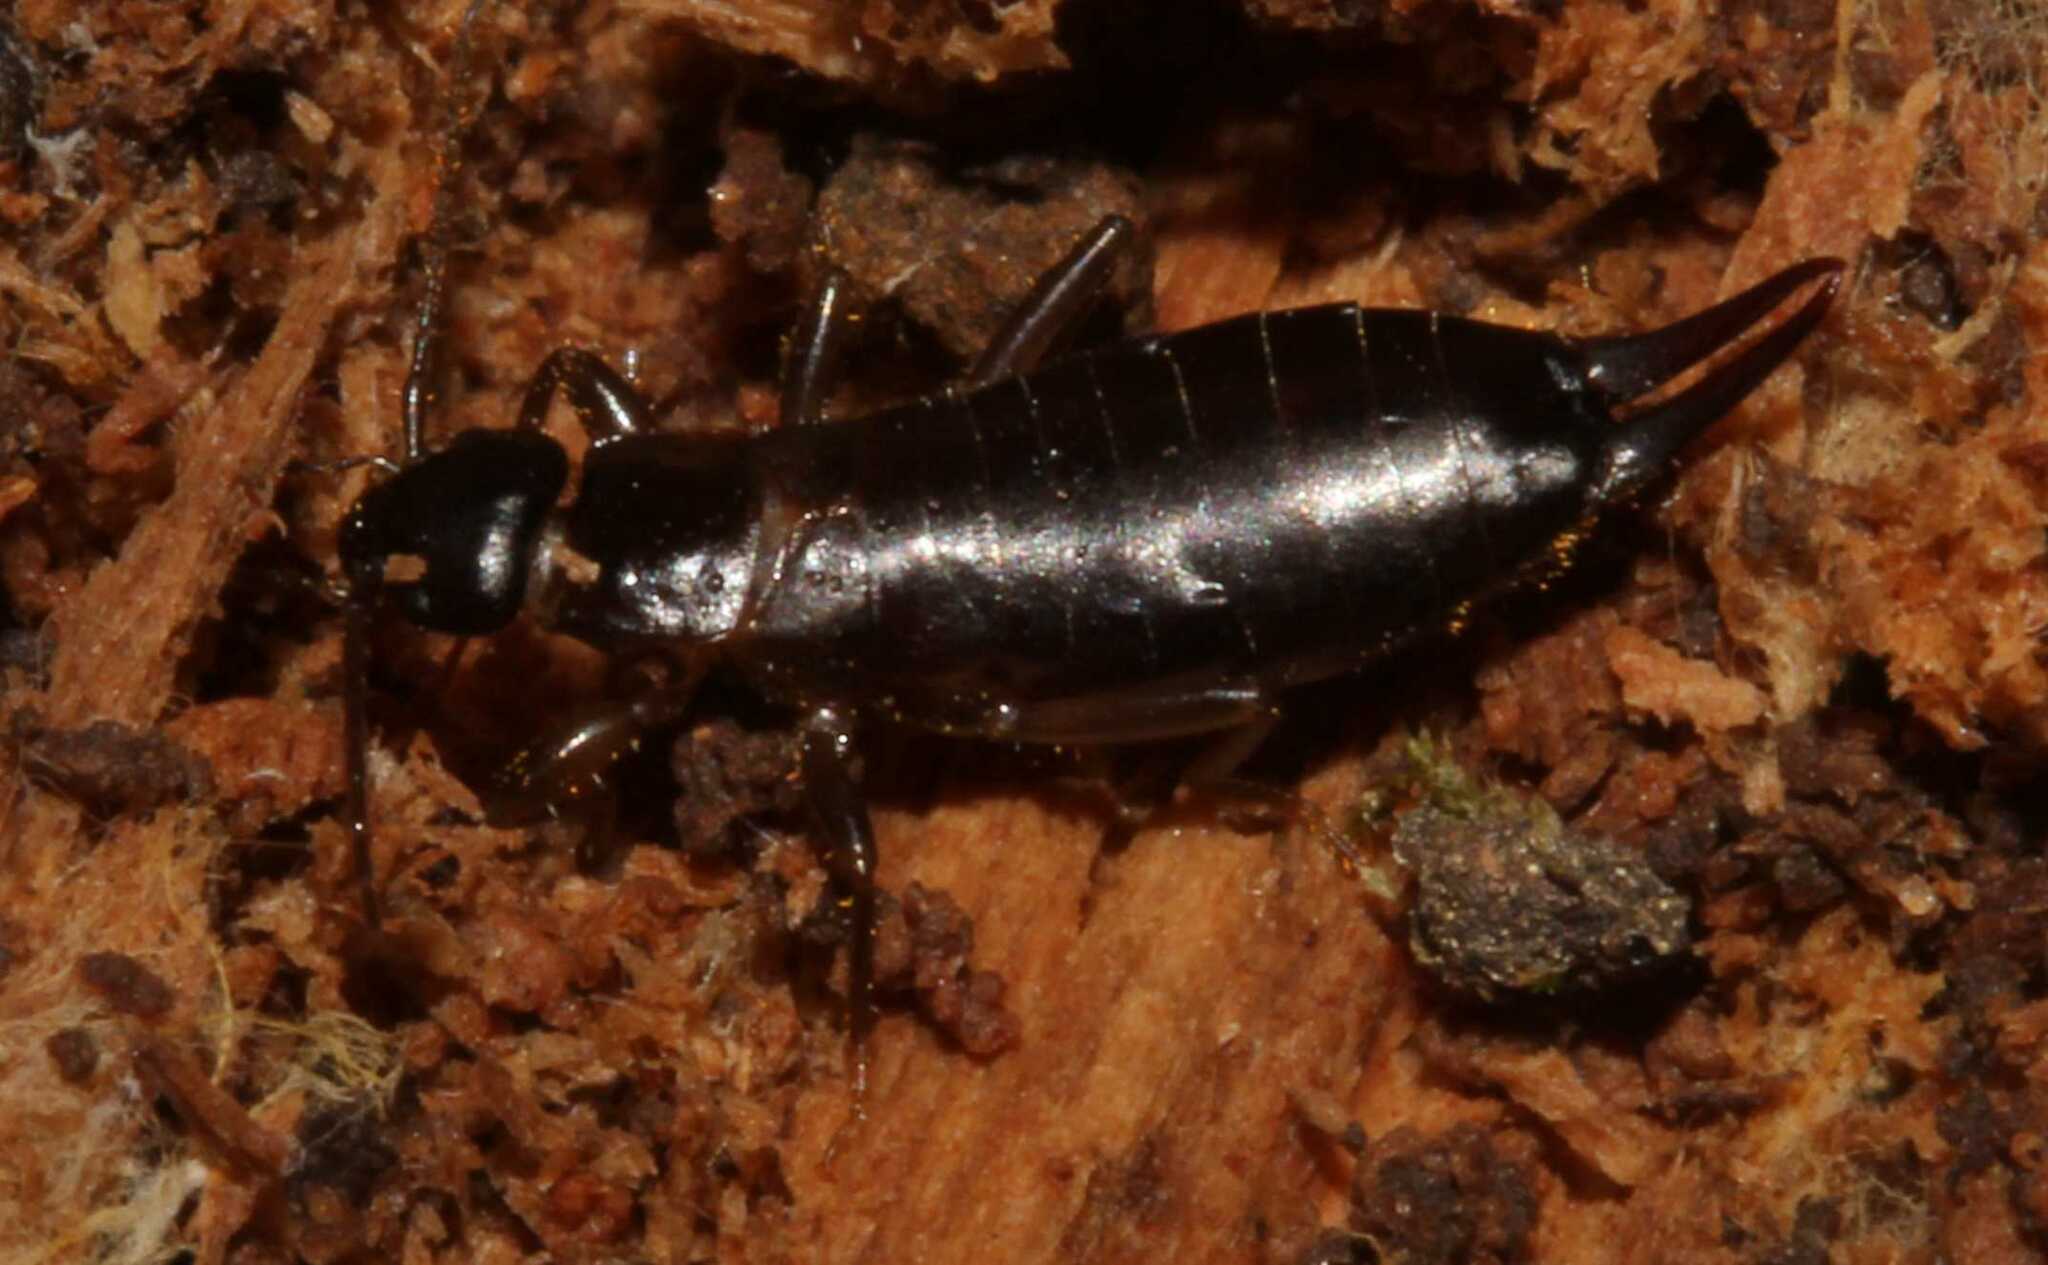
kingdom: Animalia
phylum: Arthropoda
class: Insecta
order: Dermaptera
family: Forficulidae
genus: Metresura
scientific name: Metresura pygmaea
